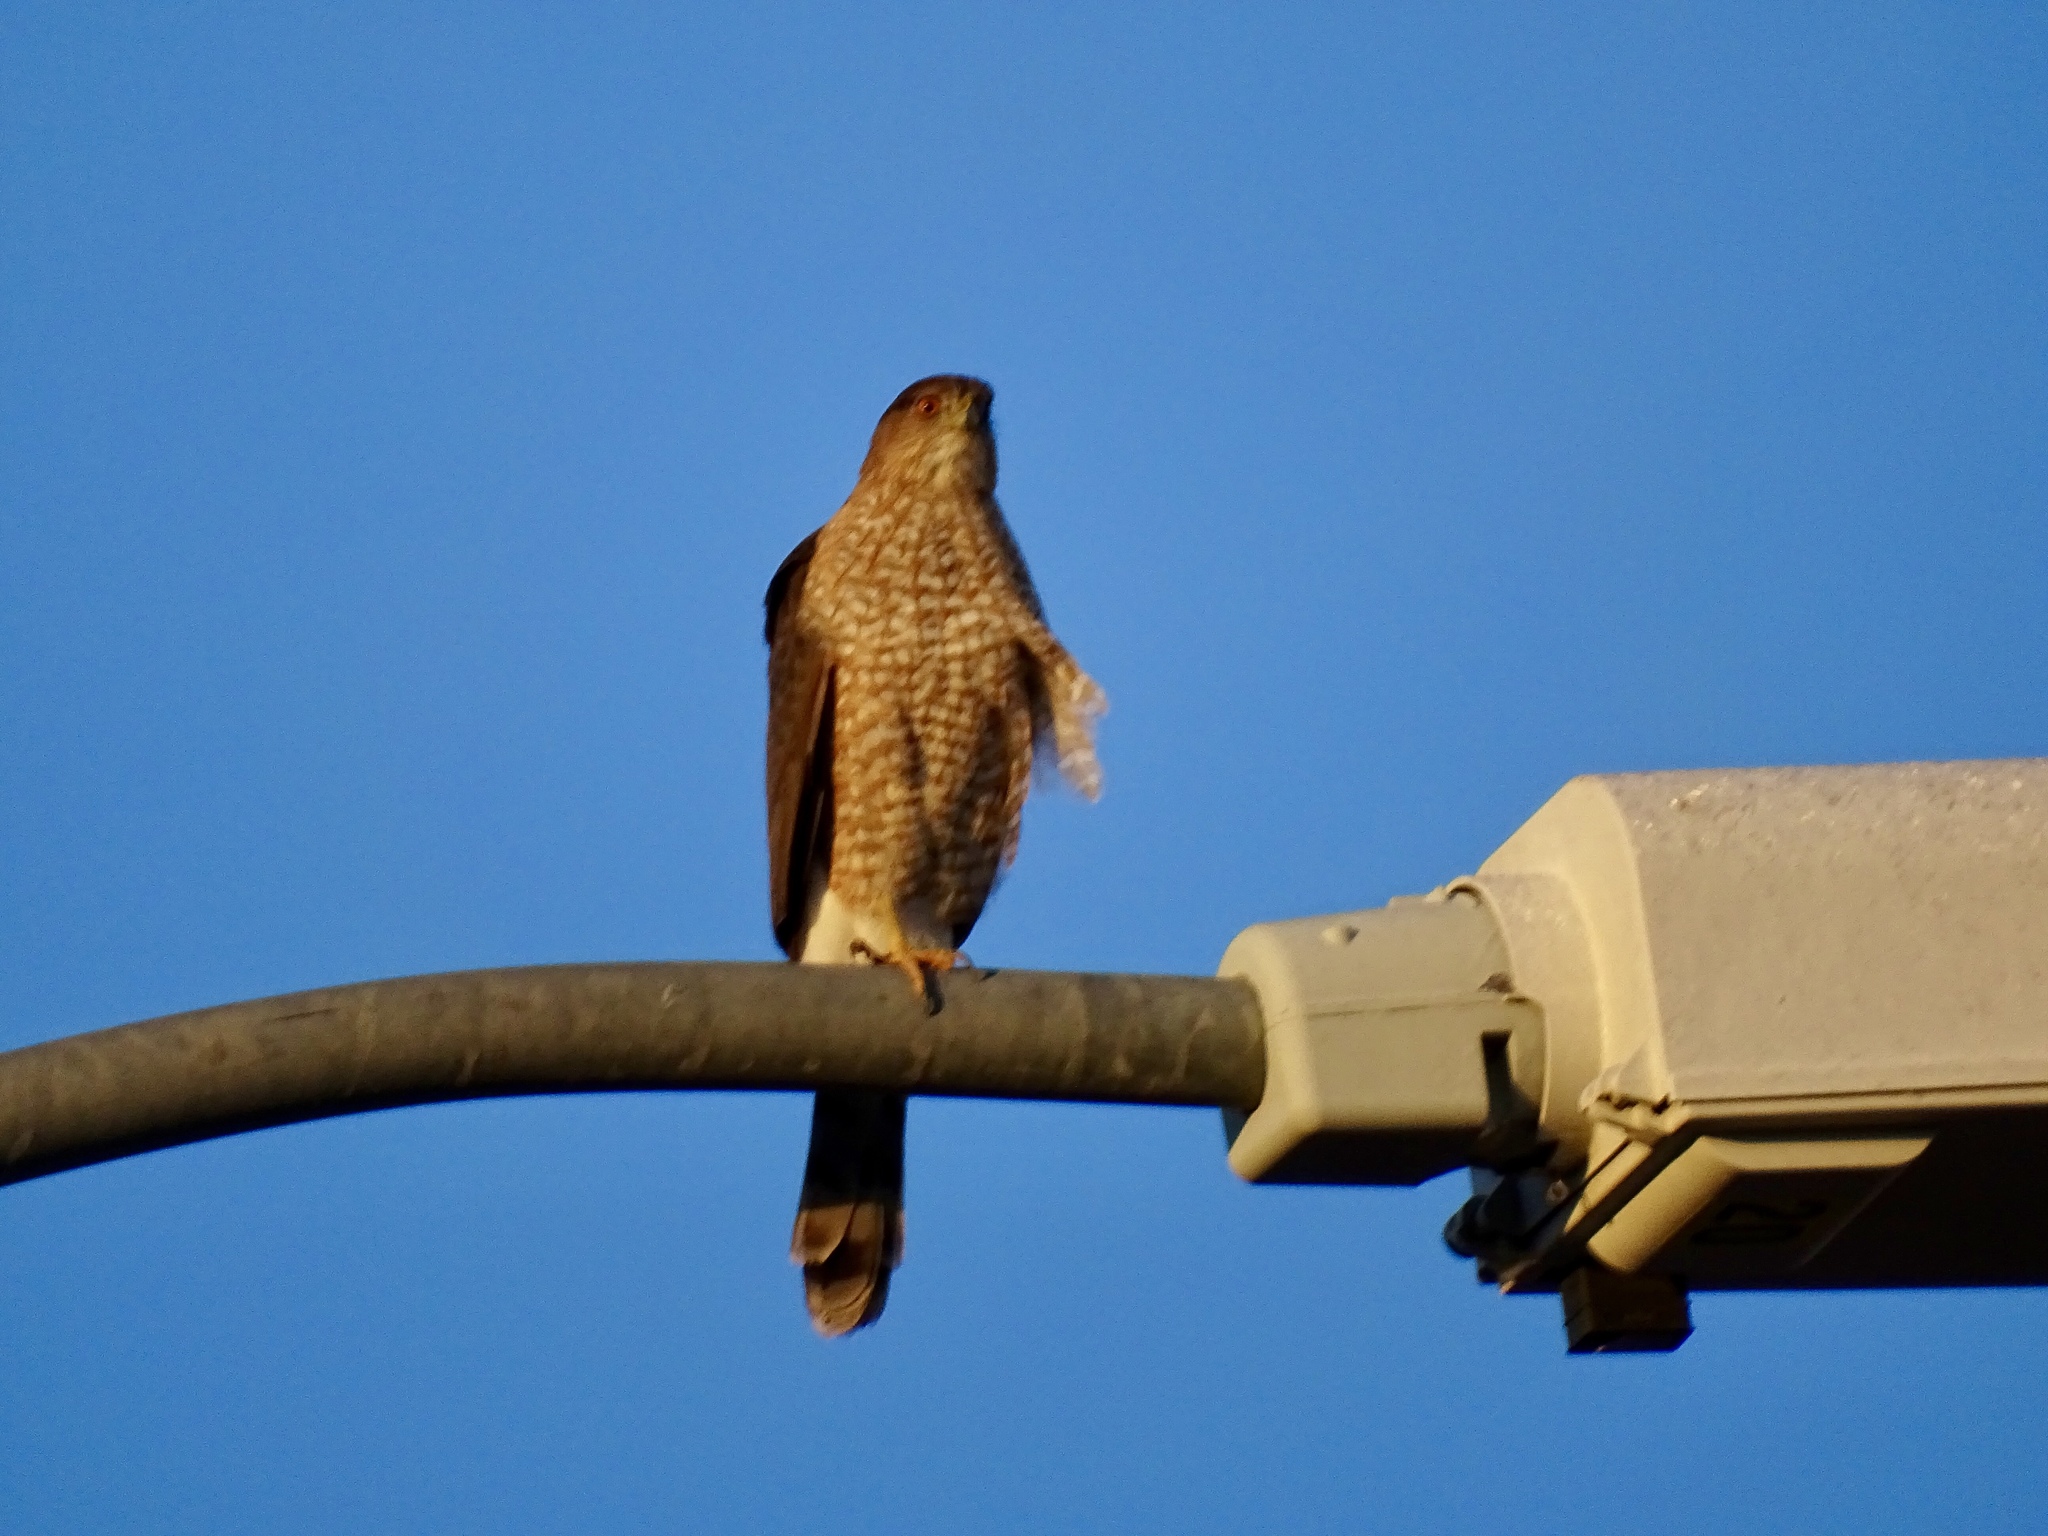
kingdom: Animalia
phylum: Chordata
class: Aves
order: Accipitriformes
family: Accipitridae
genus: Accipiter
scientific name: Accipiter cooperii
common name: Cooper's hawk
